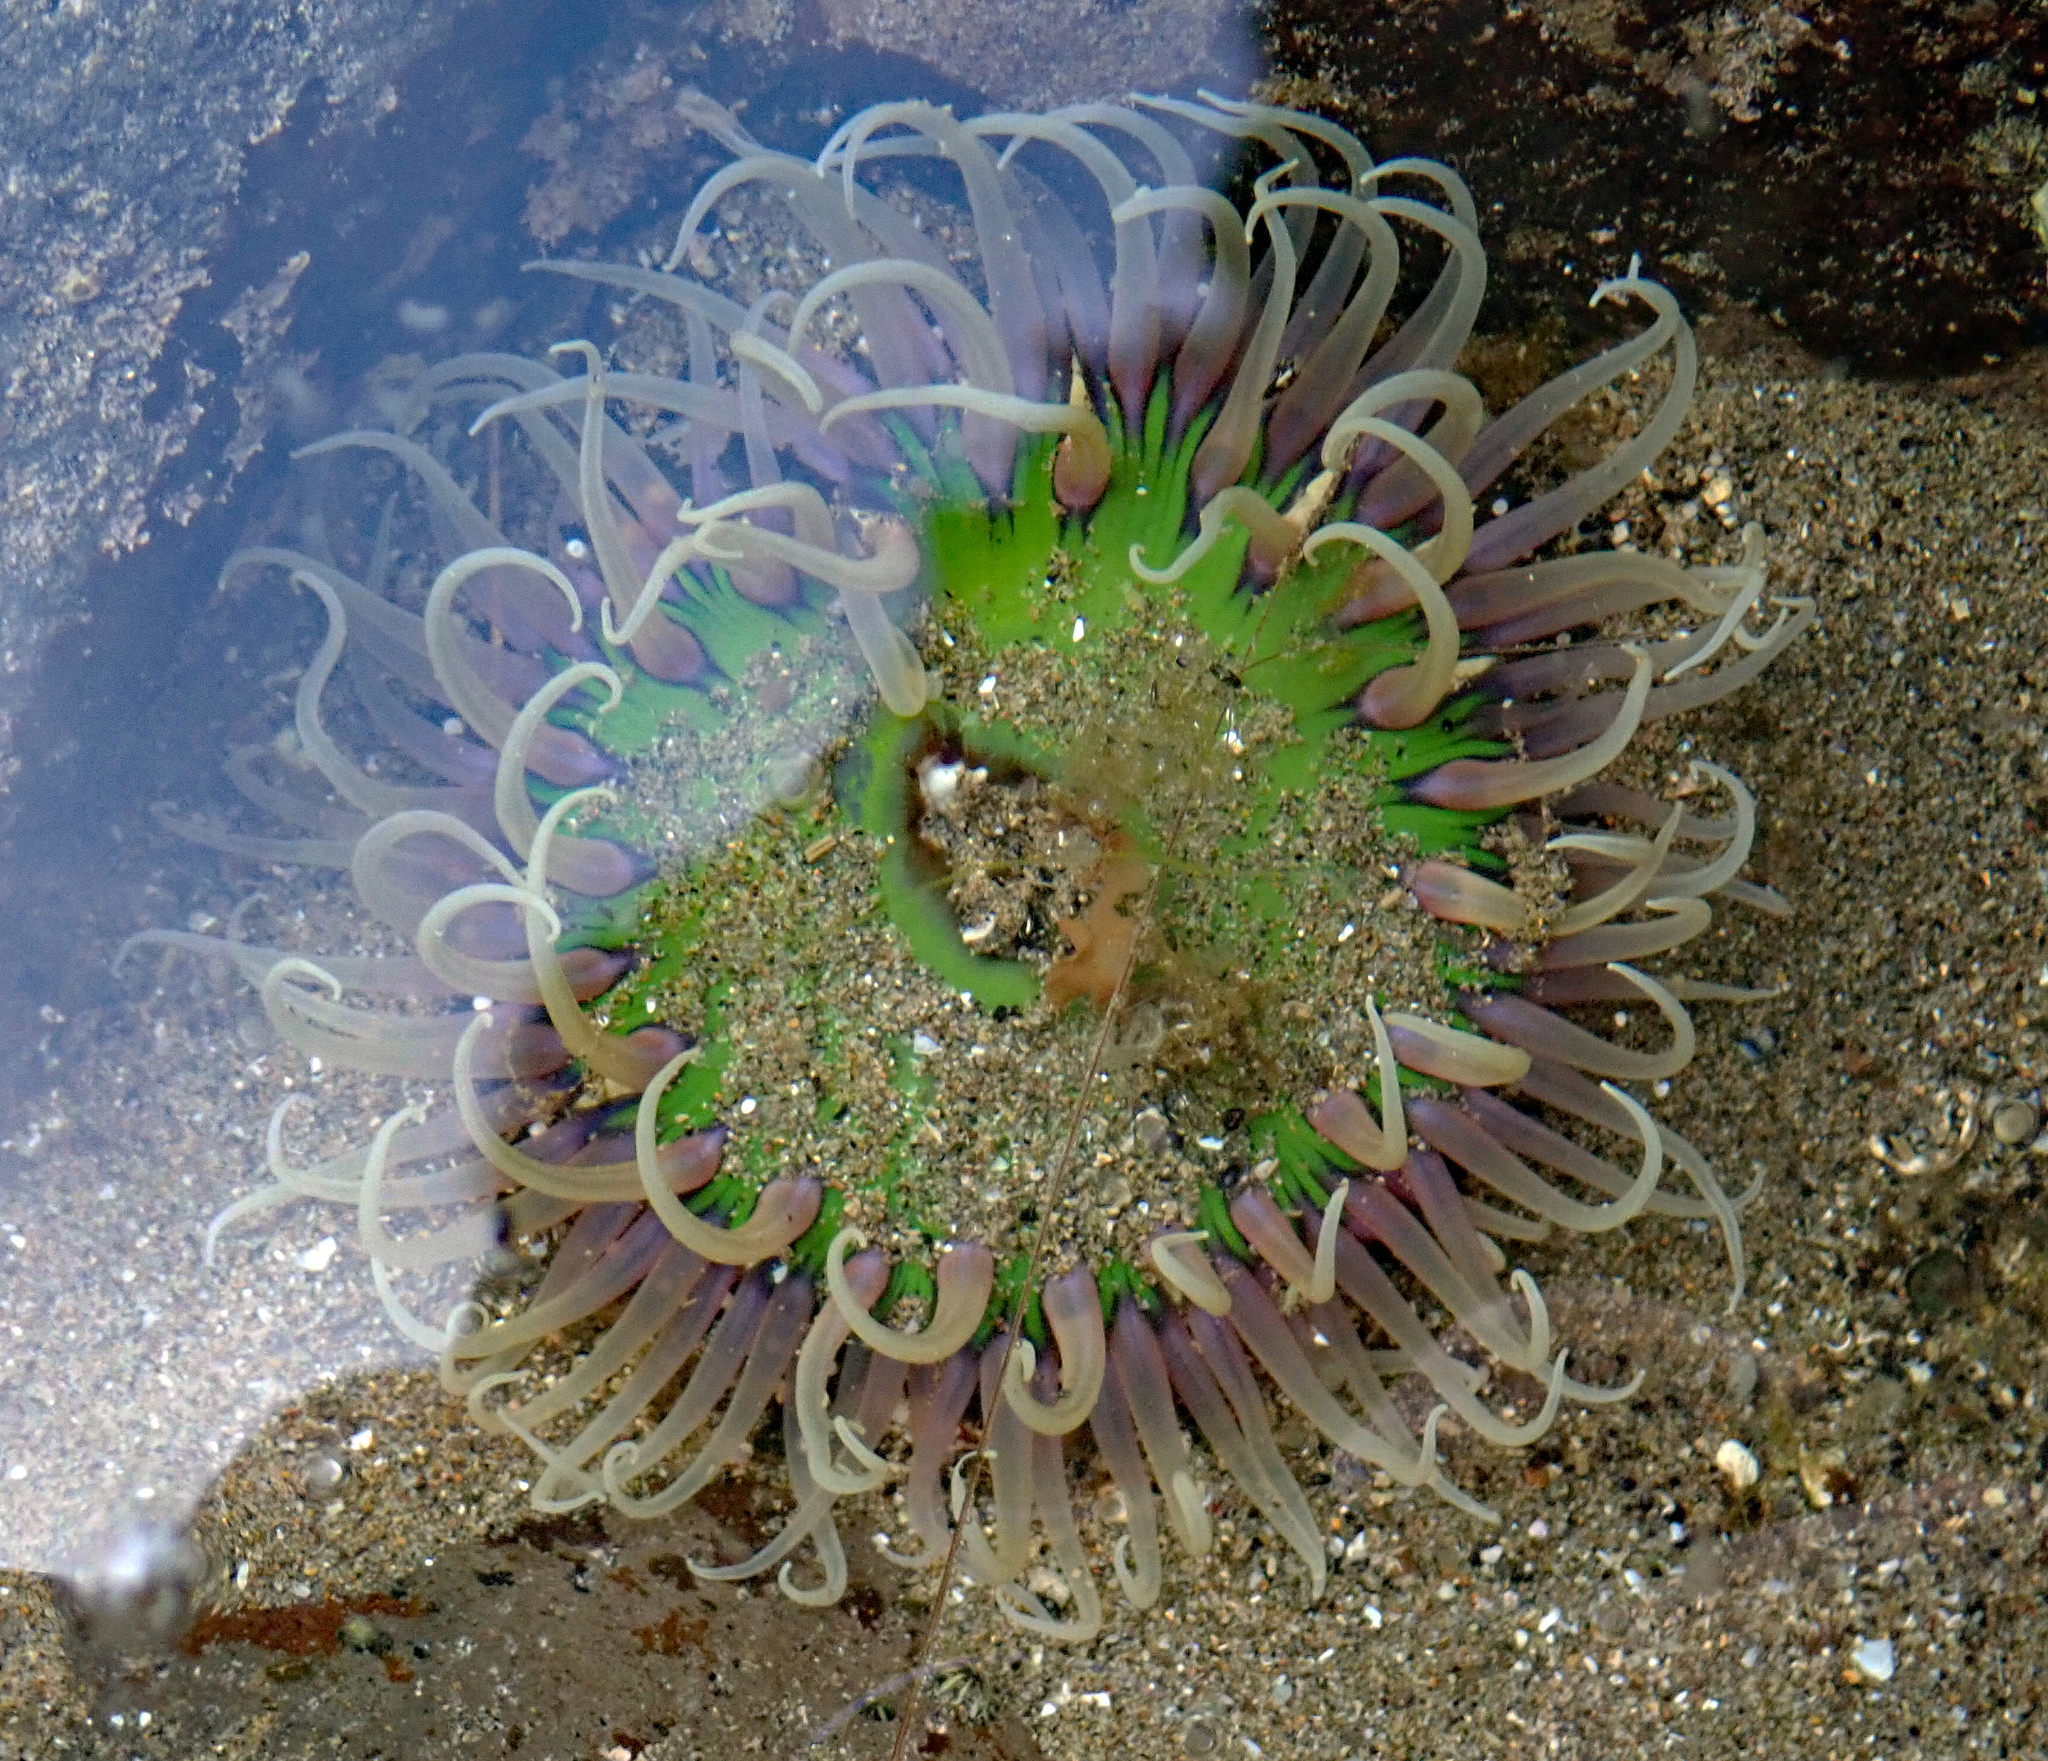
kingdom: Animalia
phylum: Cnidaria
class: Anthozoa
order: Actiniaria
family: Actiniidae
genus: Oulactis
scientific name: Oulactis magna
